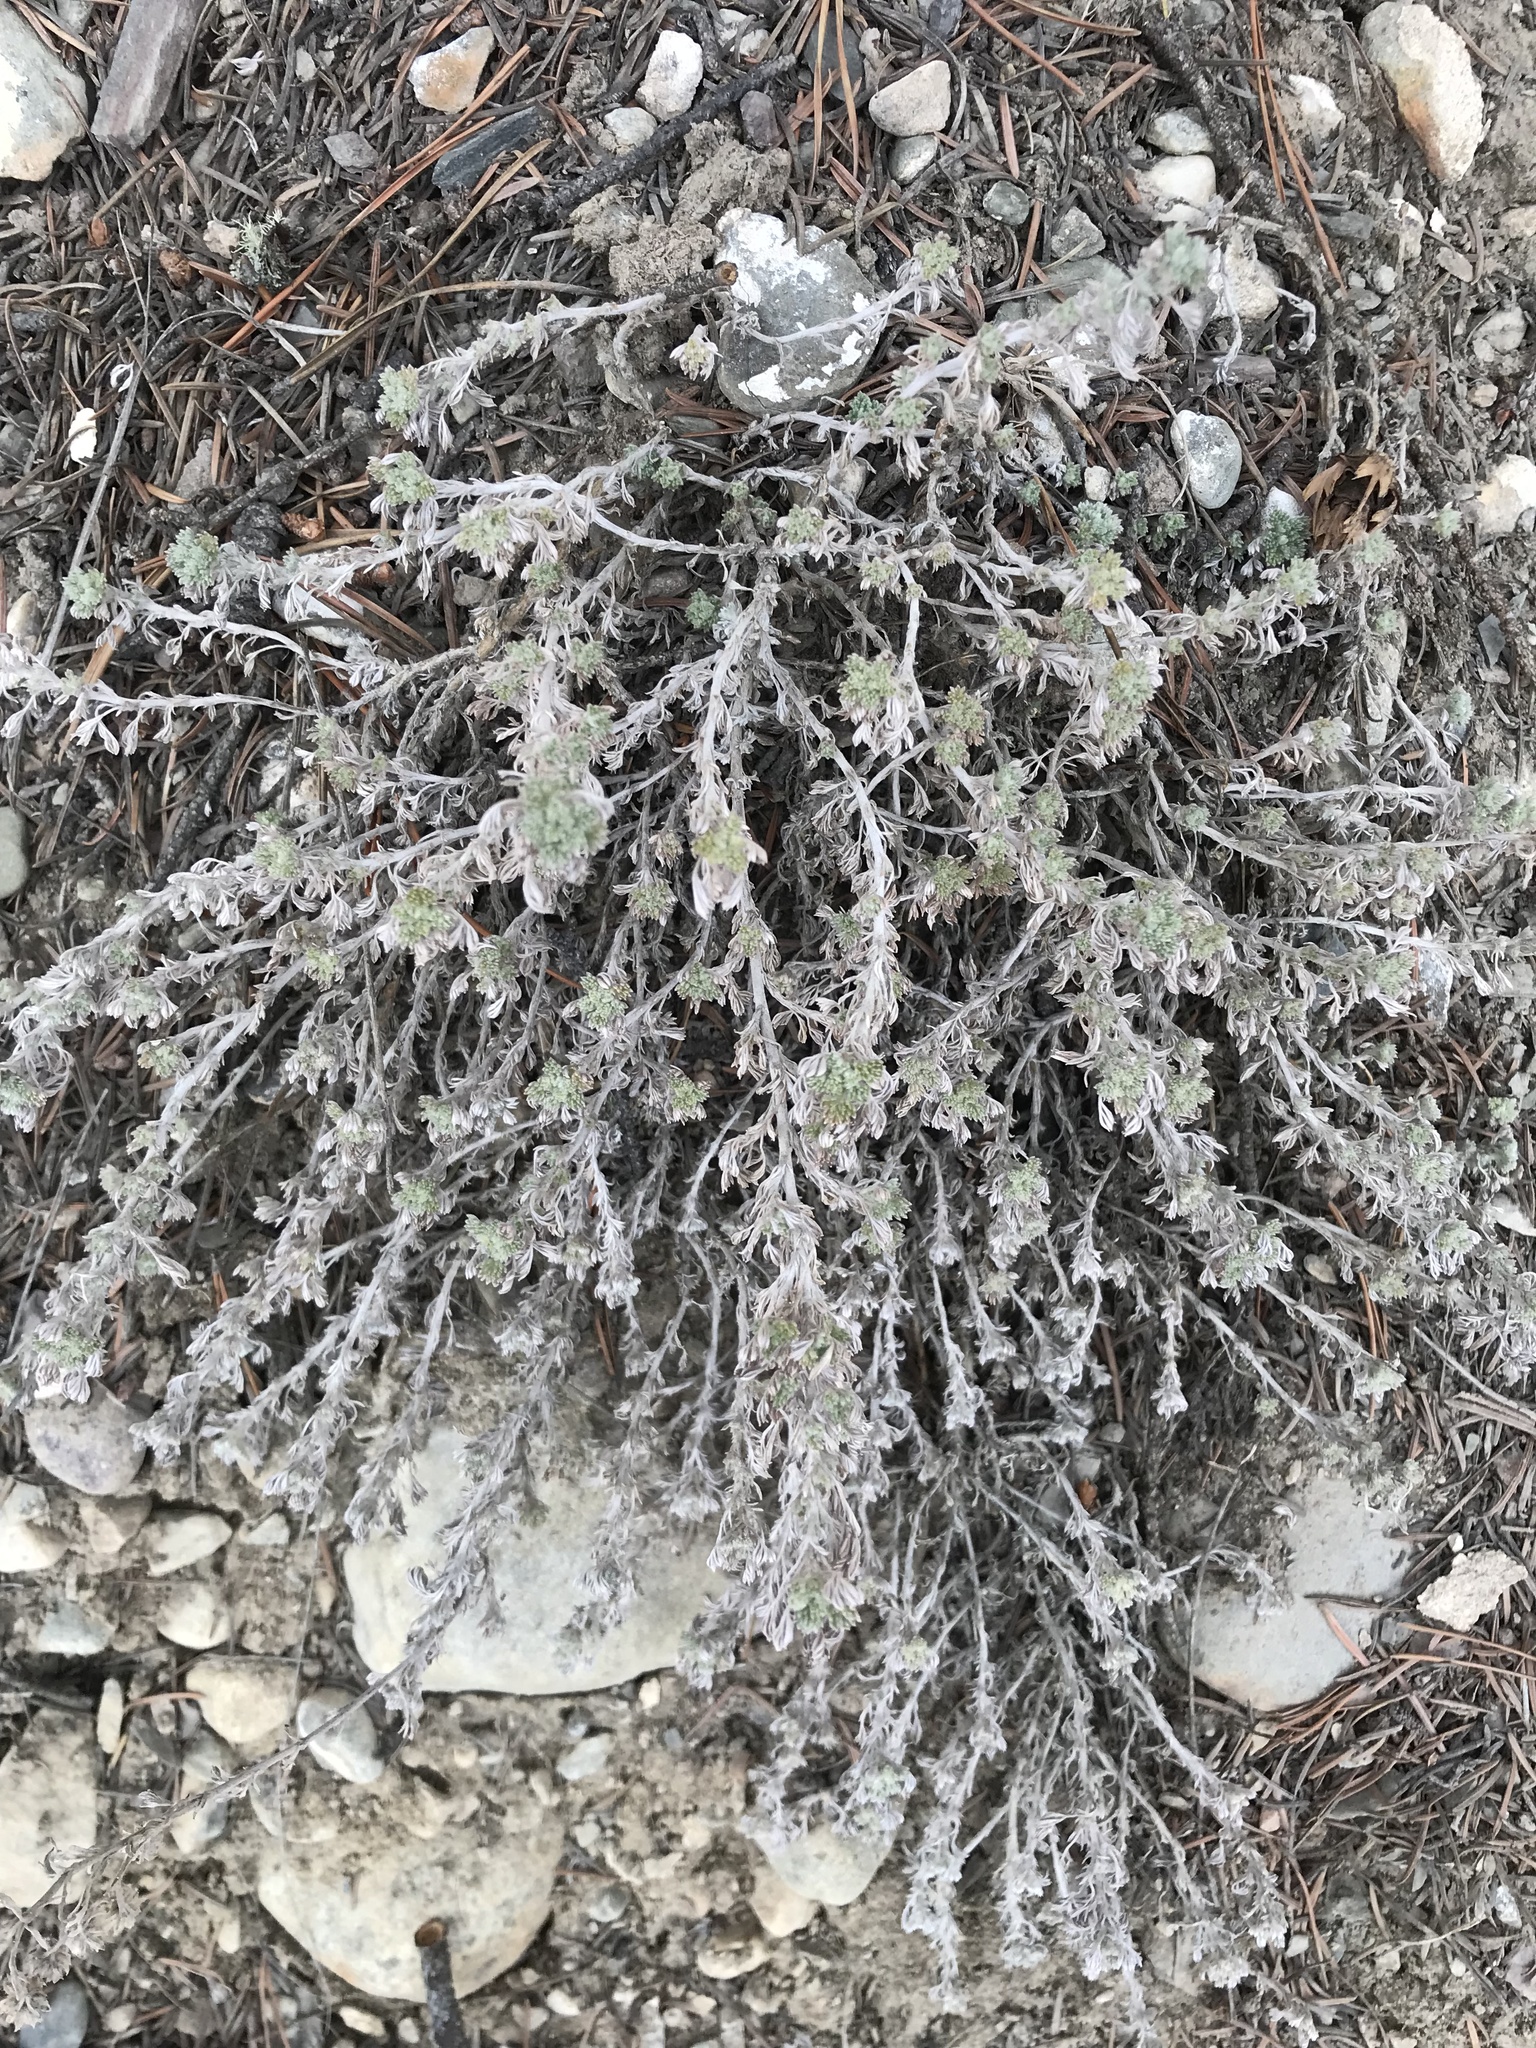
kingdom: Plantae
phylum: Tracheophyta
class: Magnoliopsida
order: Asterales
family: Asteraceae
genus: Artemisia
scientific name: Artemisia frigida
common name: Prairie sagewort
